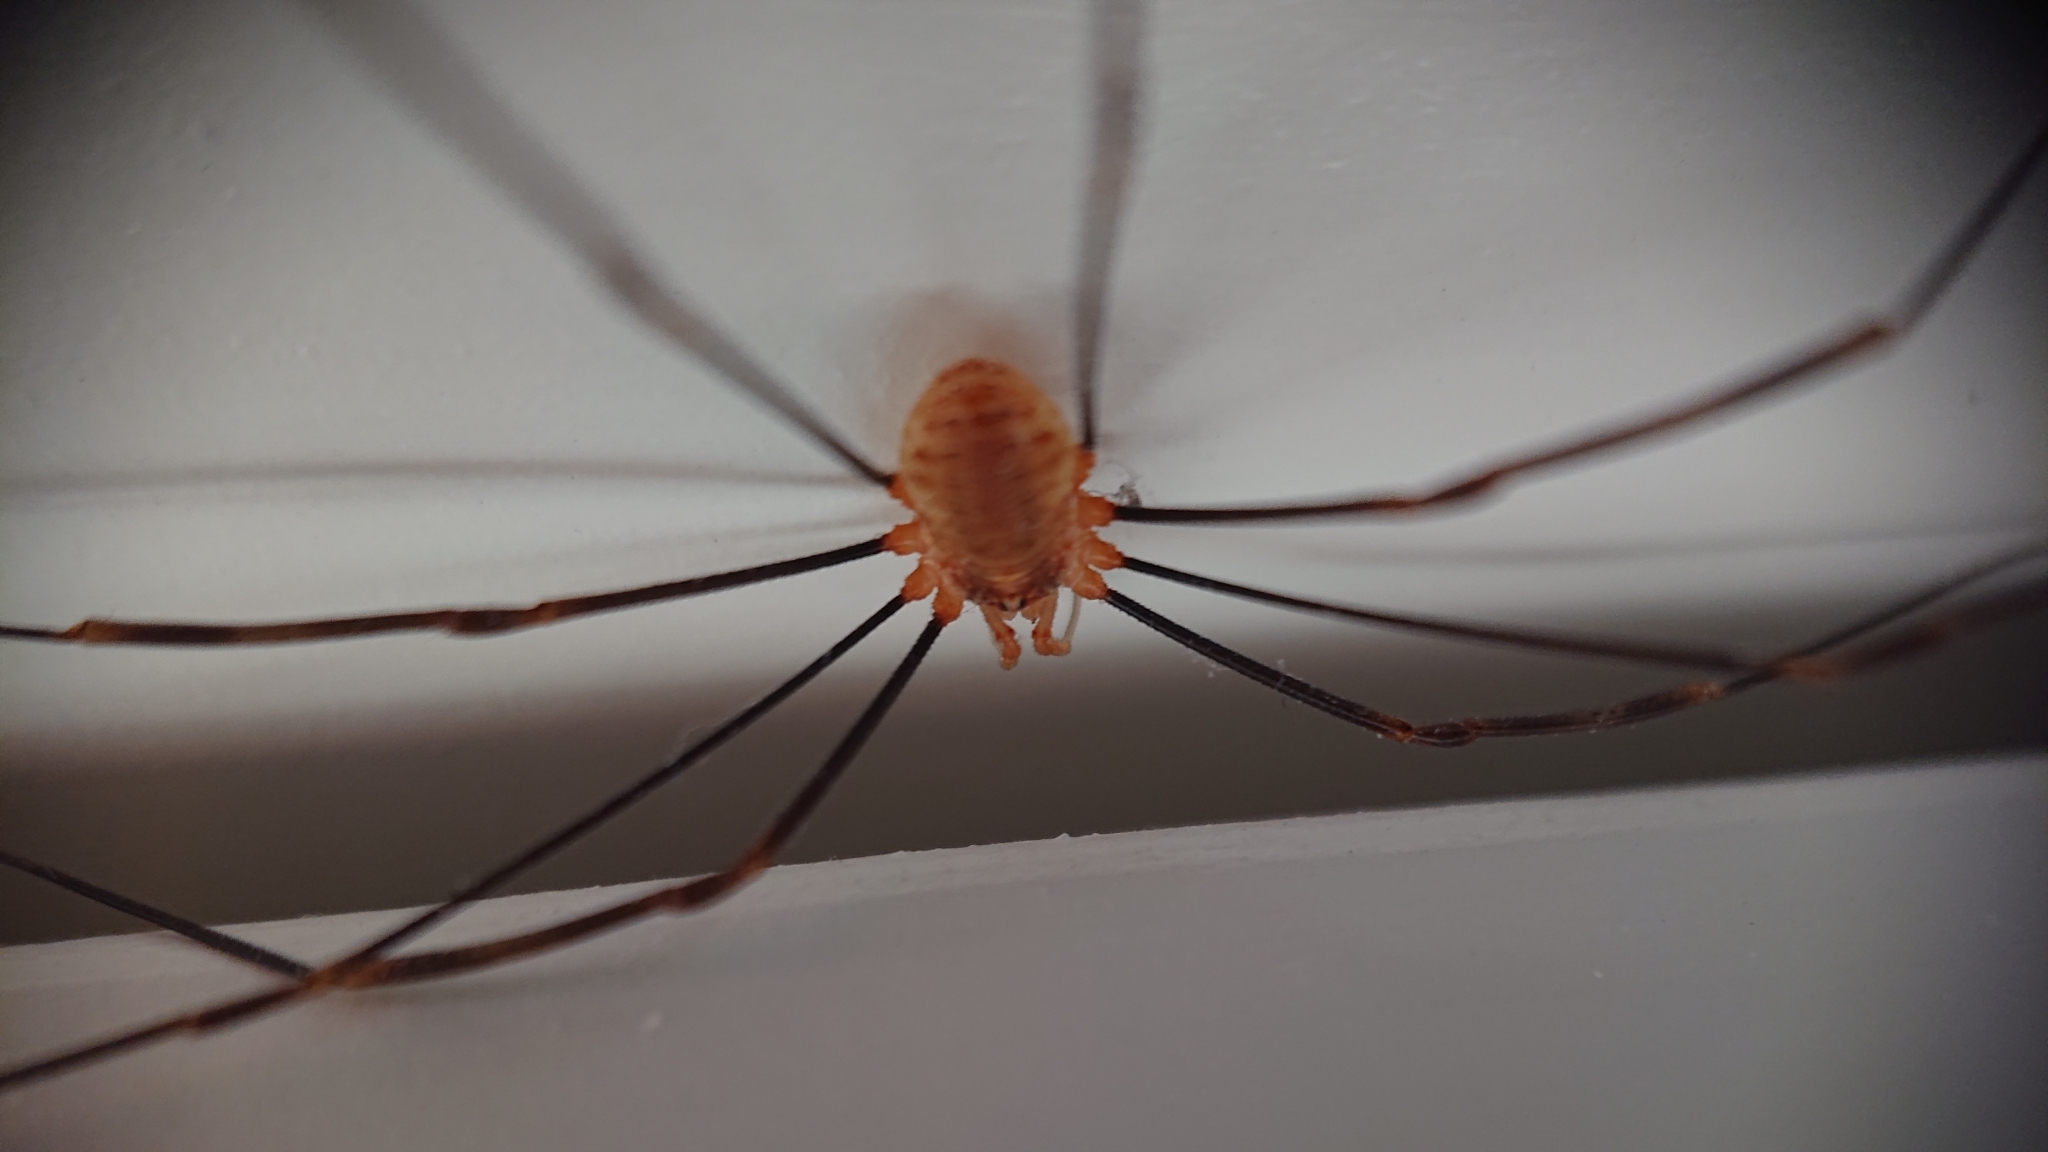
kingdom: Animalia
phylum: Arthropoda
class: Arachnida
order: Opiliones
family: Phalangiidae
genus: Opilio
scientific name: Opilio canestrinii
